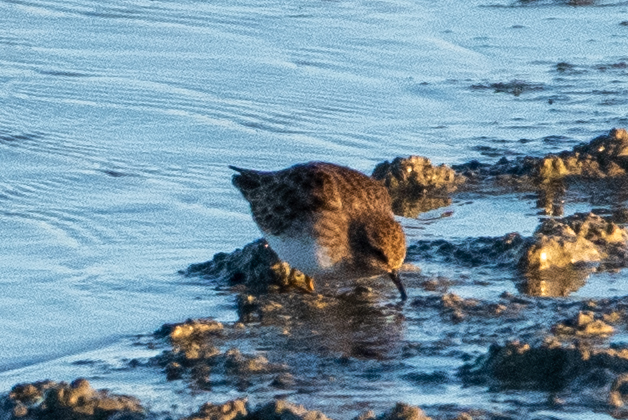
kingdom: Animalia
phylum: Chordata
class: Aves
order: Charadriiformes
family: Scolopacidae
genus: Calidris
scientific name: Calidris minutilla
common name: Least sandpiper
